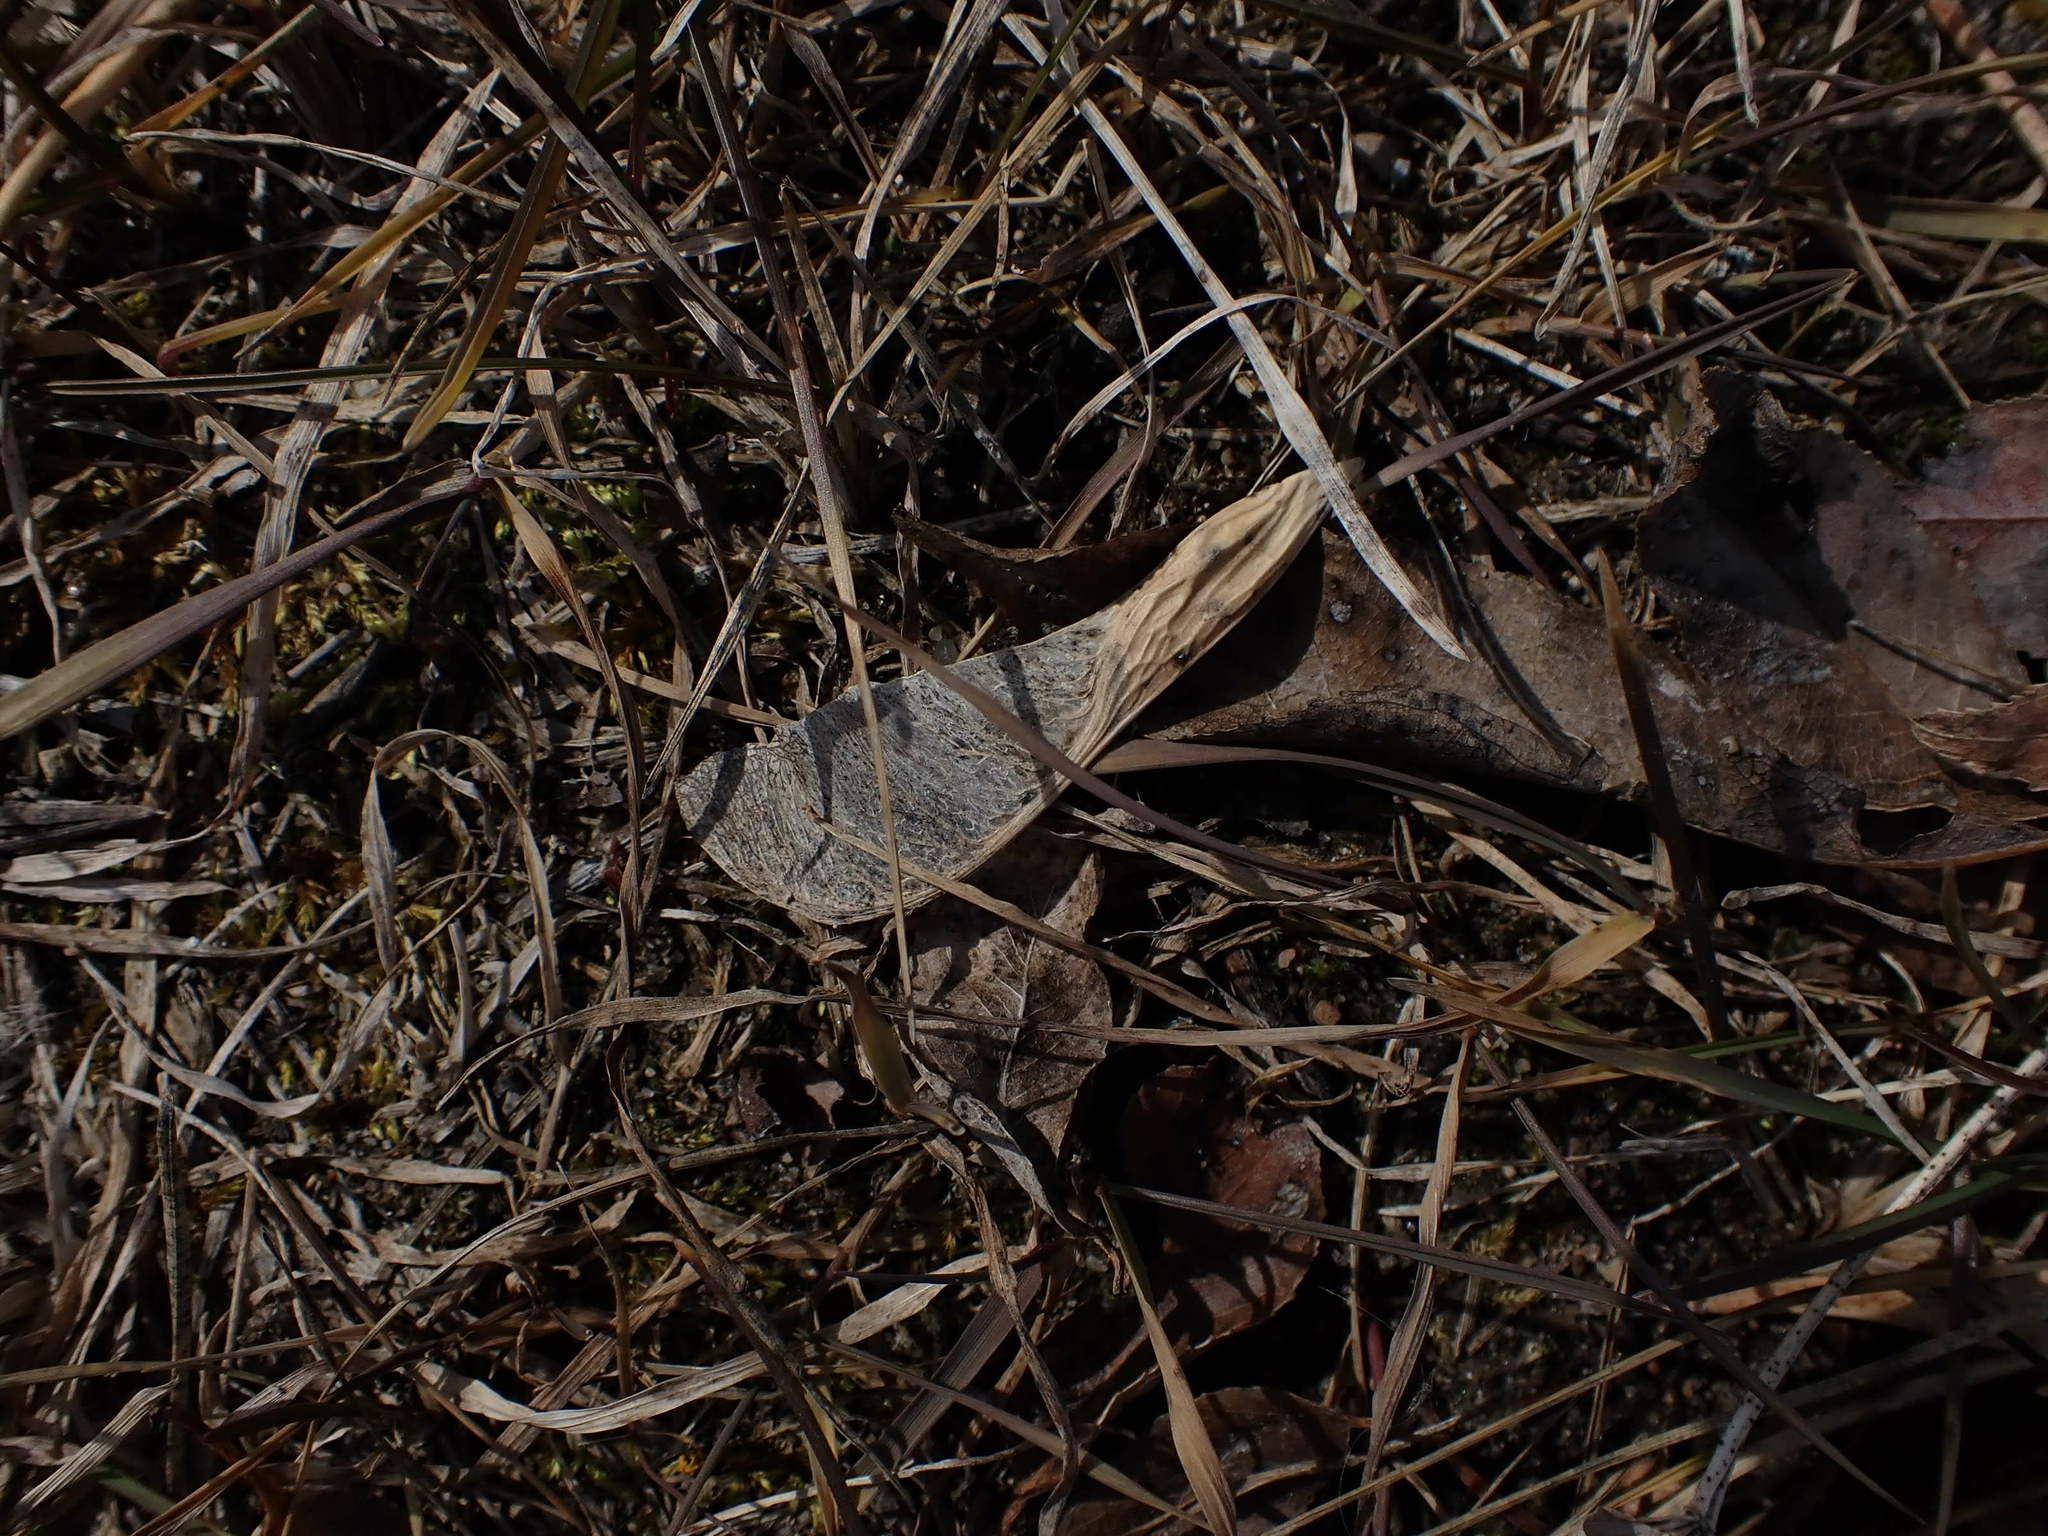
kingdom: Plantae
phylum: Tracheophyta
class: Magnoliopsida
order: Sapindales
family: Sapindaceae
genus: Acer
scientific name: Acer negundo
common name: Ashleaf maple
